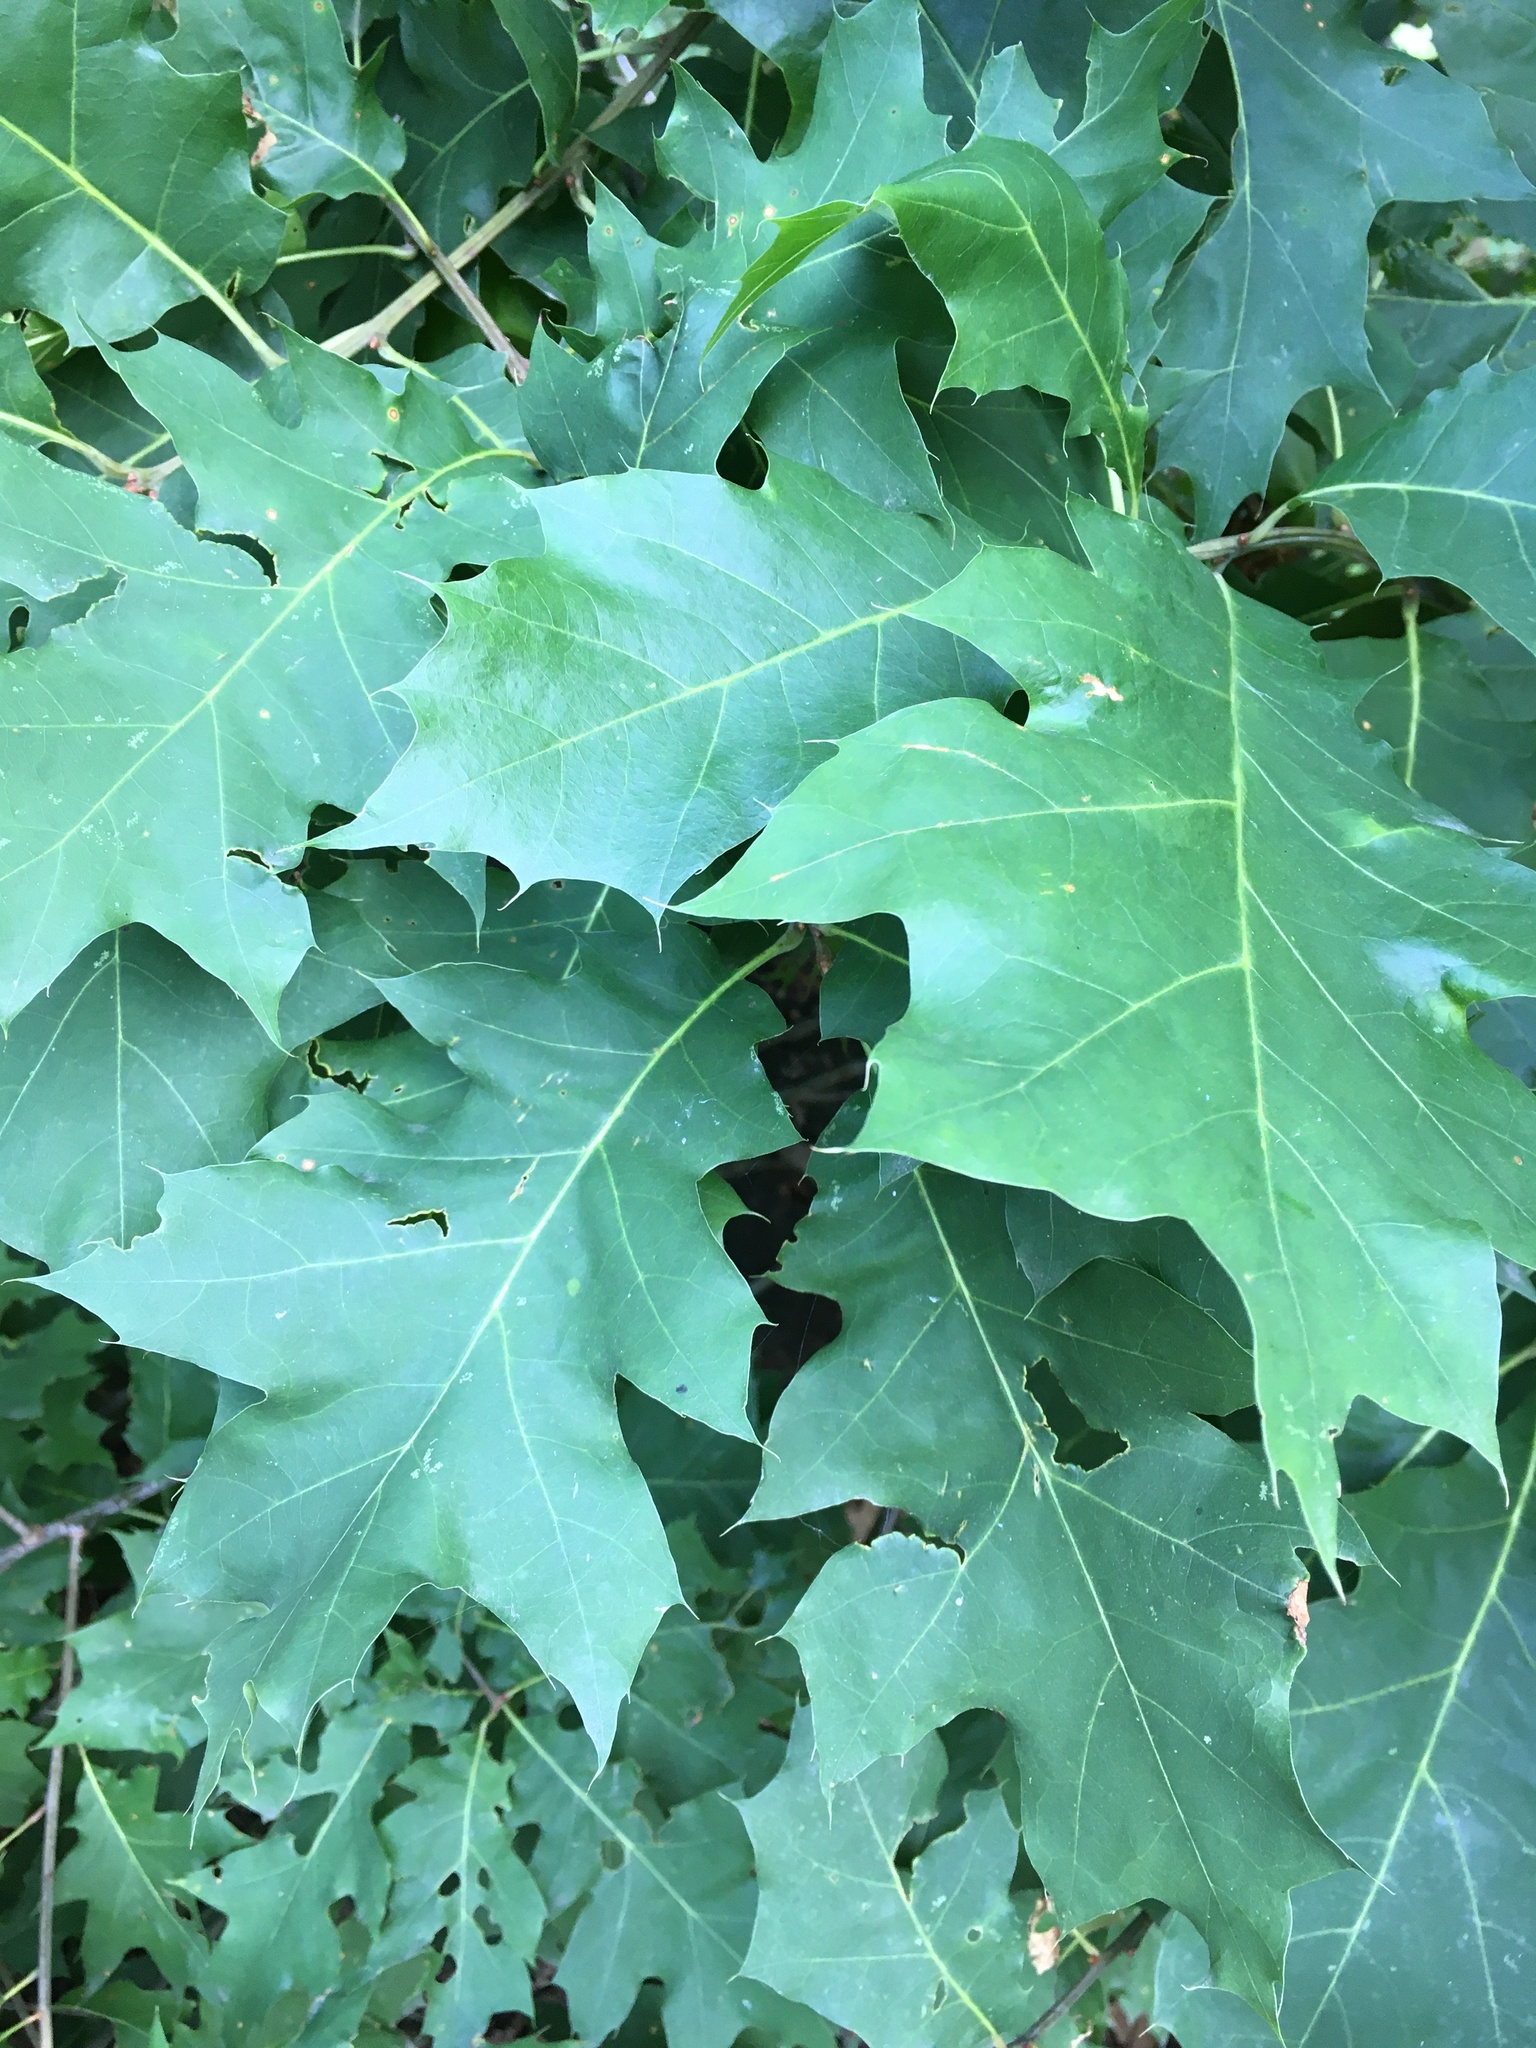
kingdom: Plantae
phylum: Tracheophyta
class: Magnoliopsida
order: Fagales
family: Fagaceae
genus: Quercus
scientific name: Quercus rubra
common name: Red oak
